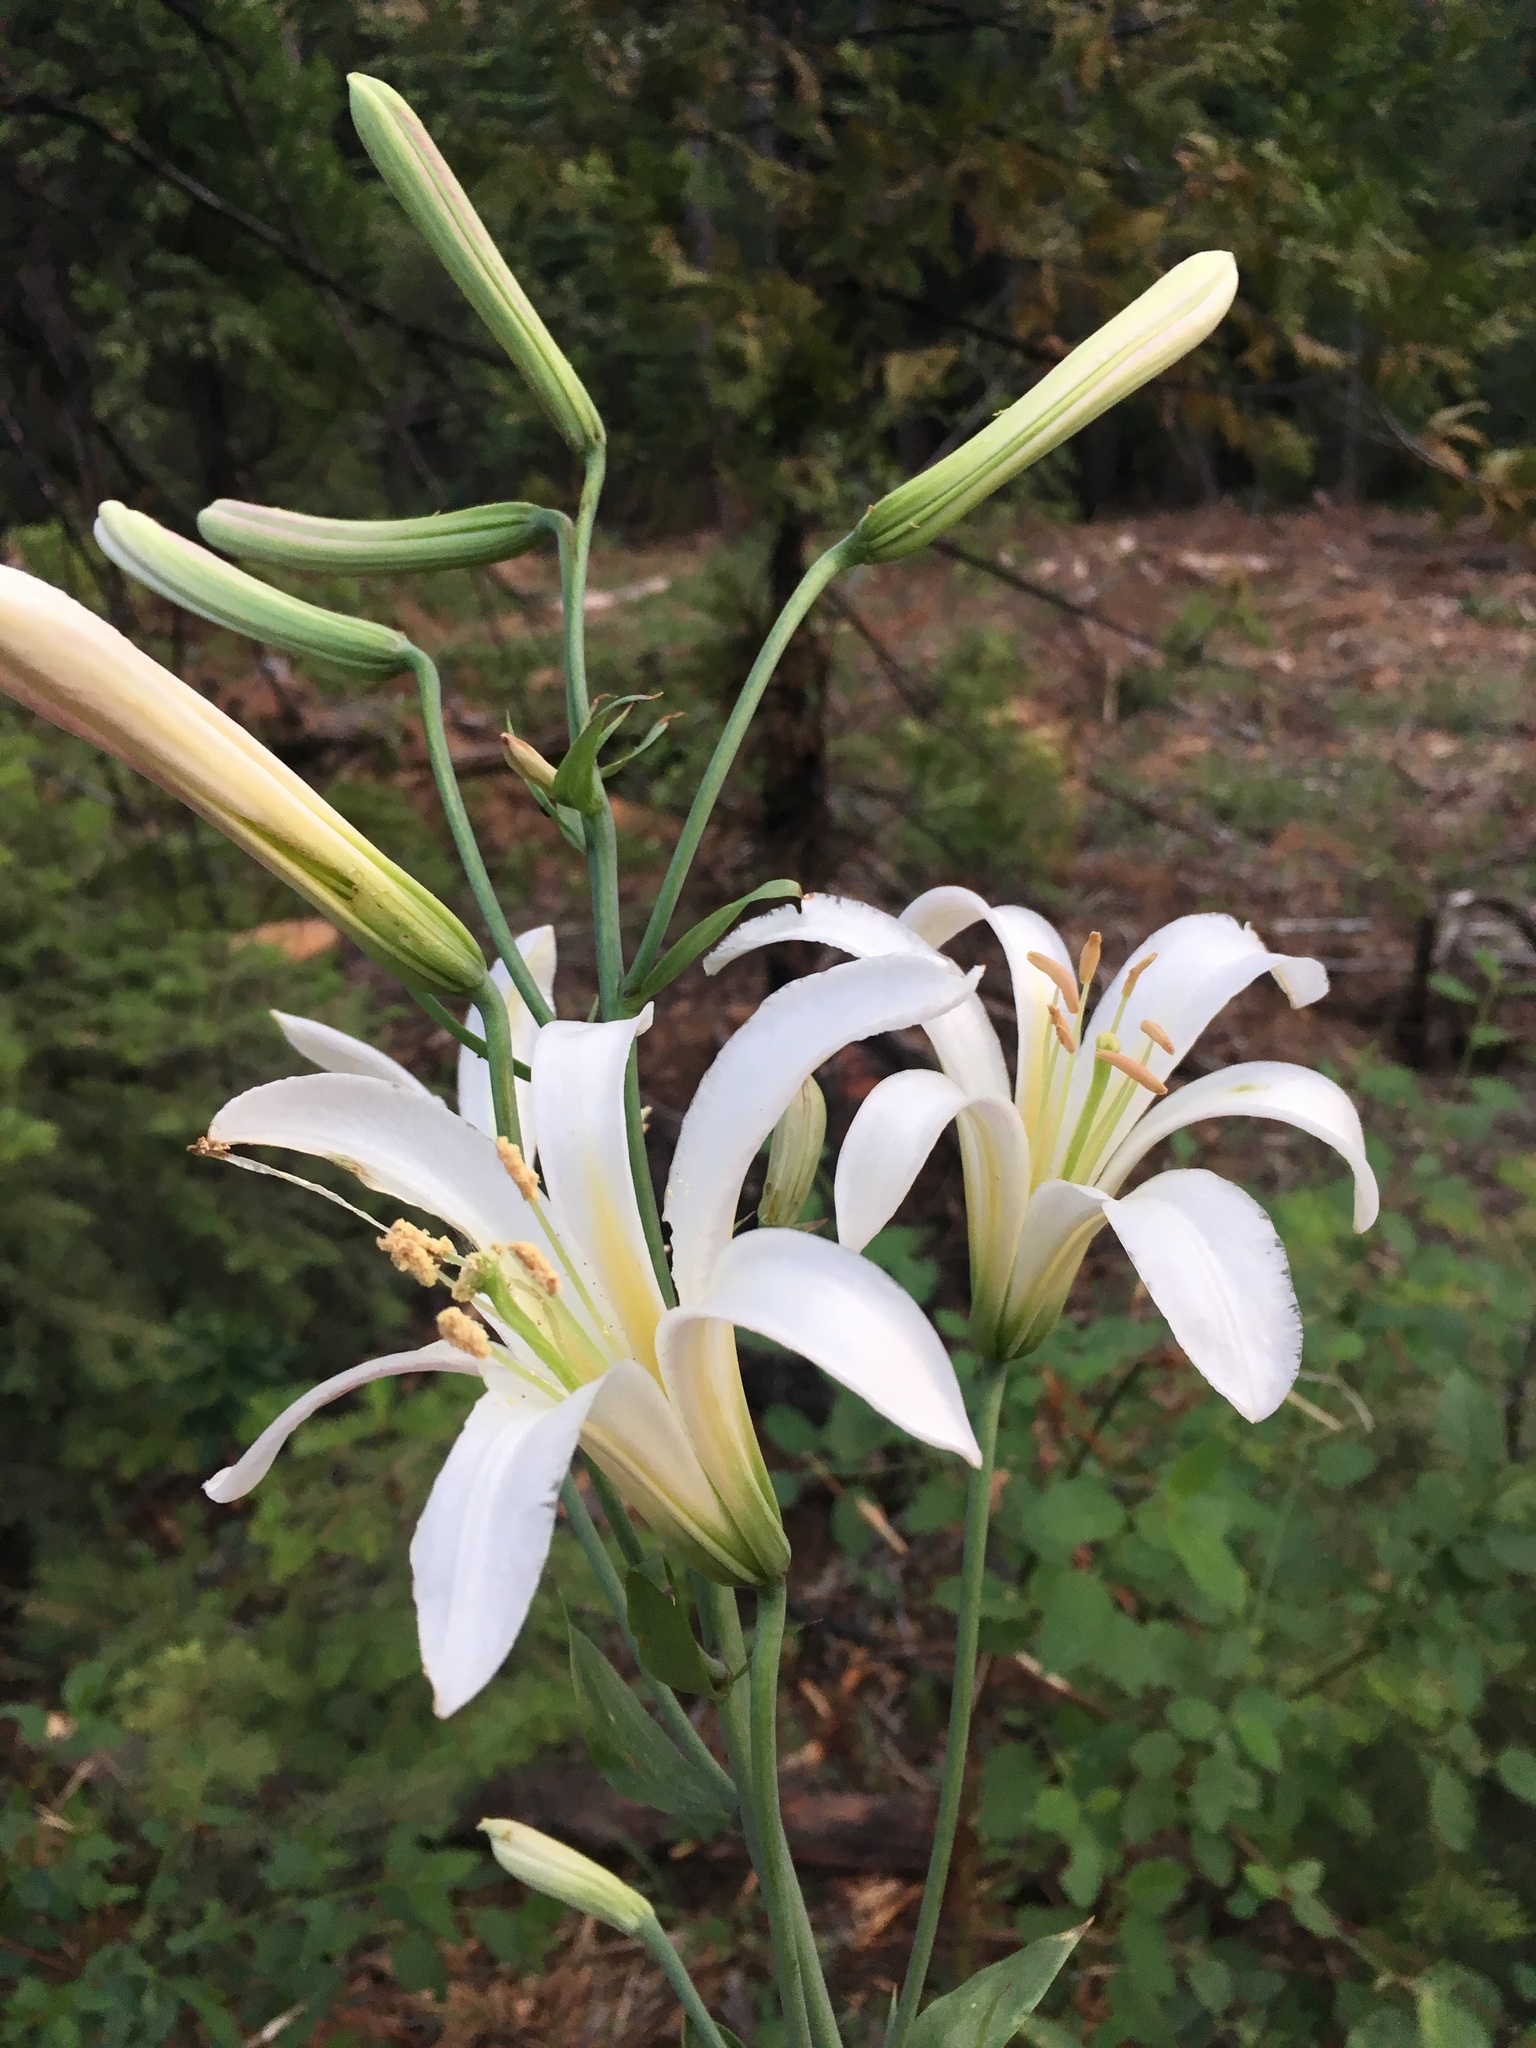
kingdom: Plantae
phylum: Tracheophyta
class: Liliopsida
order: Liliales
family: Liliaceae
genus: Lilium
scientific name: Lilium washingtonianum
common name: Washington lily
